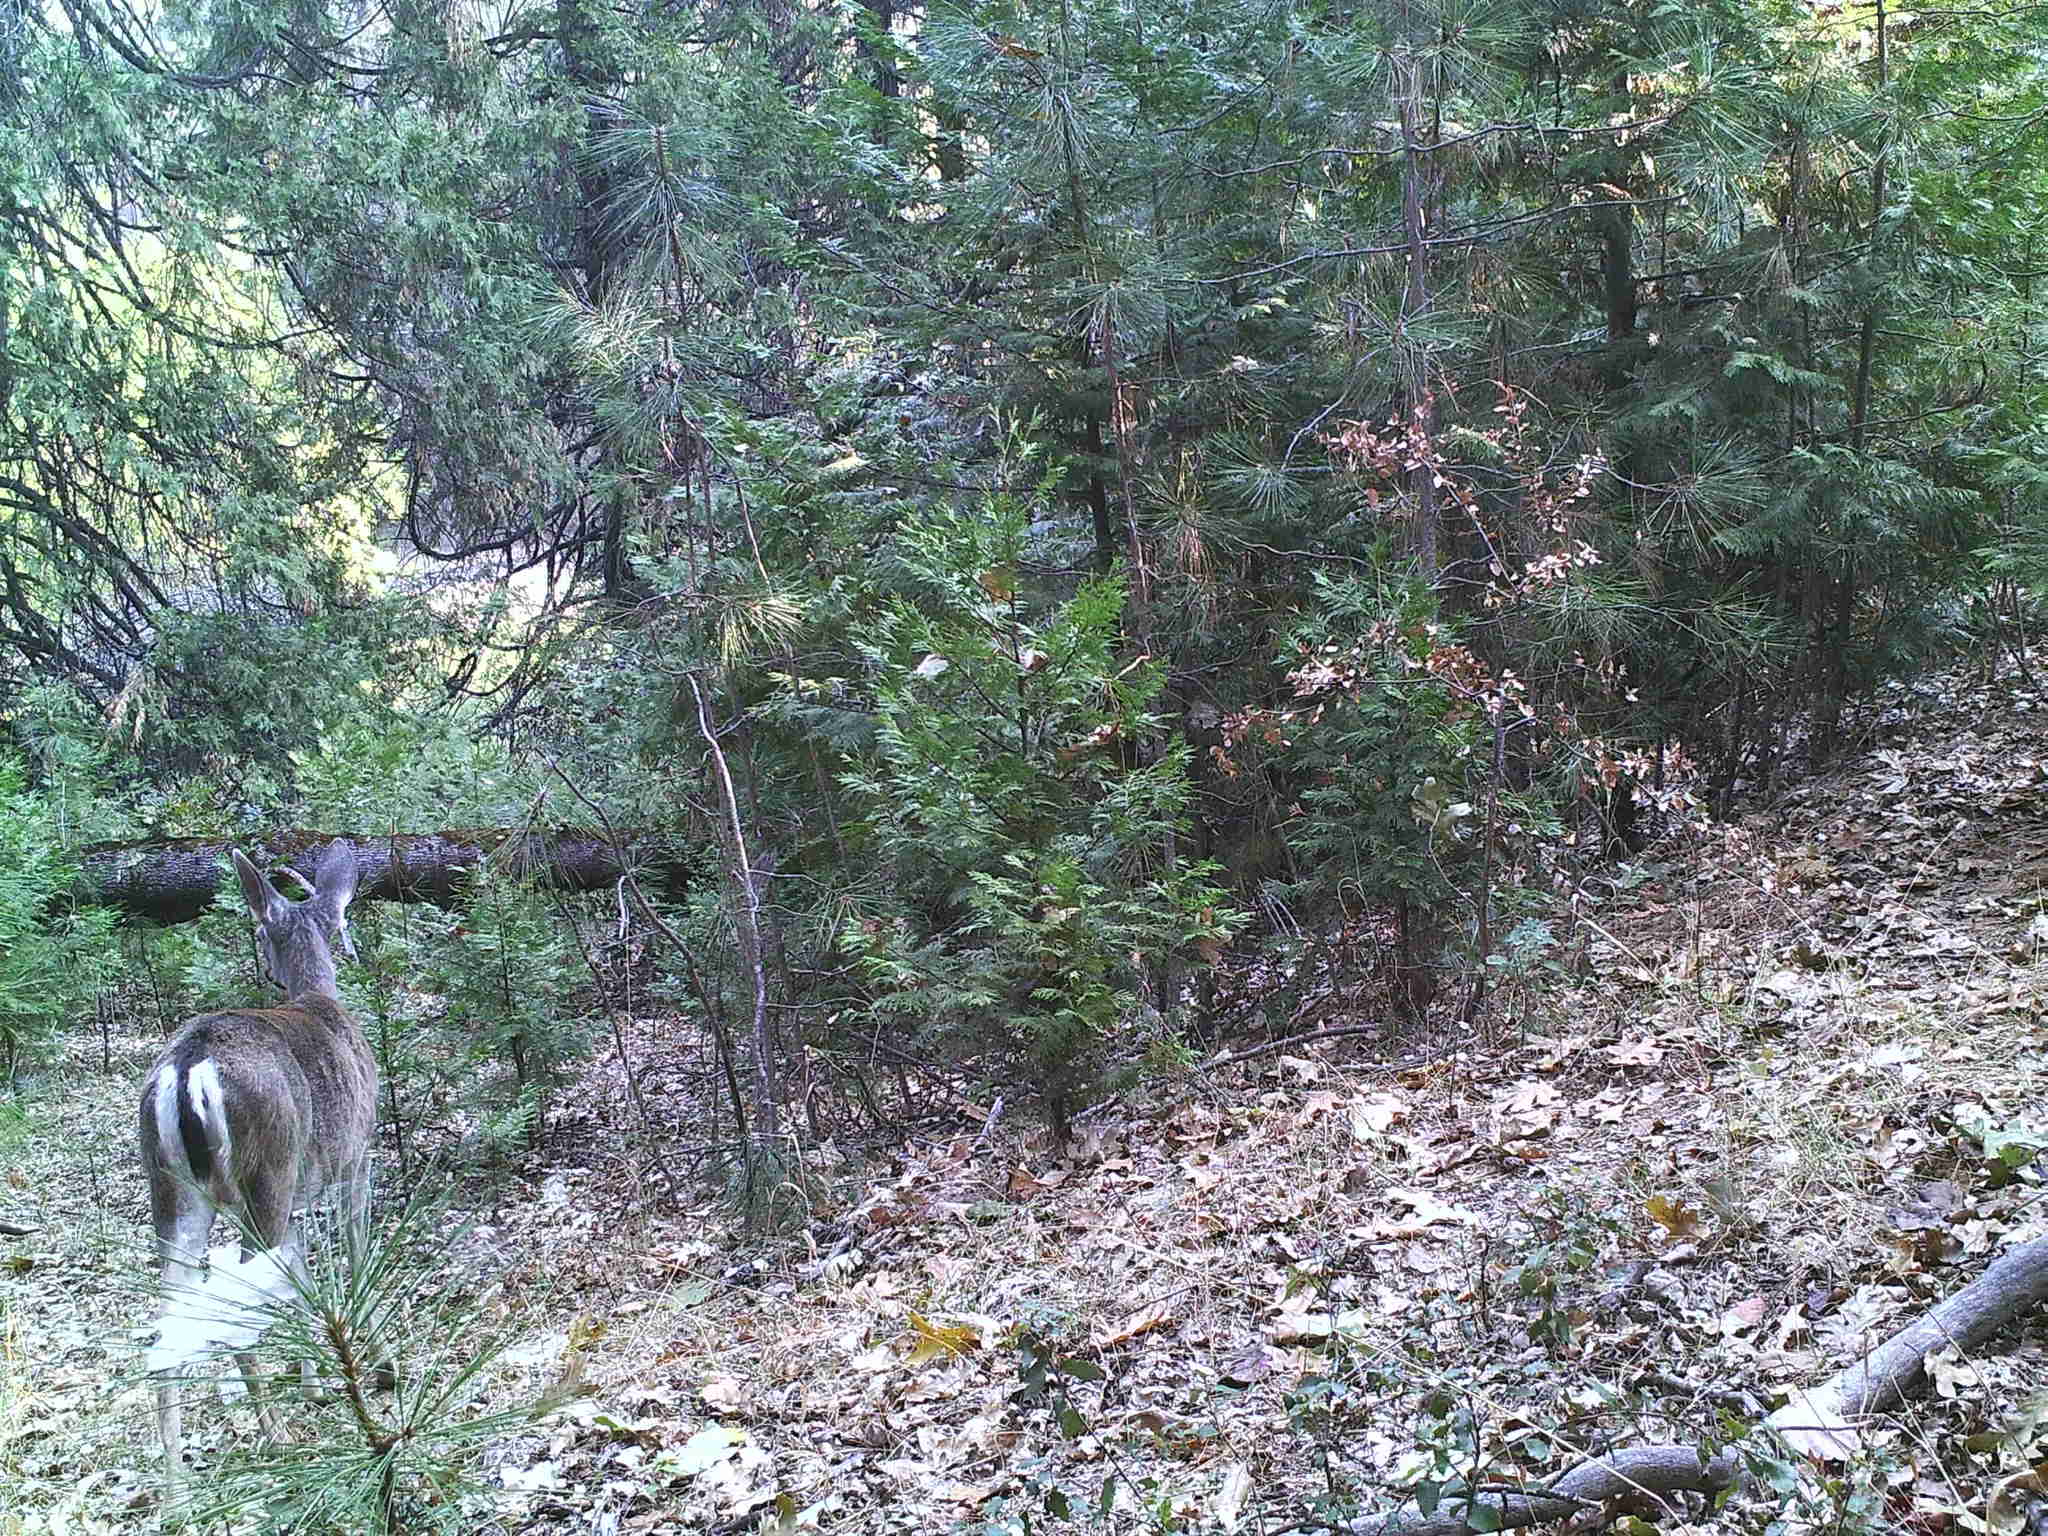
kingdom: Animalia
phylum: Chordata
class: Mammalia
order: Artiodactyla
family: Cervidae
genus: Odocoileus
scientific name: Odocoileus hemionus
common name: Mule deer
